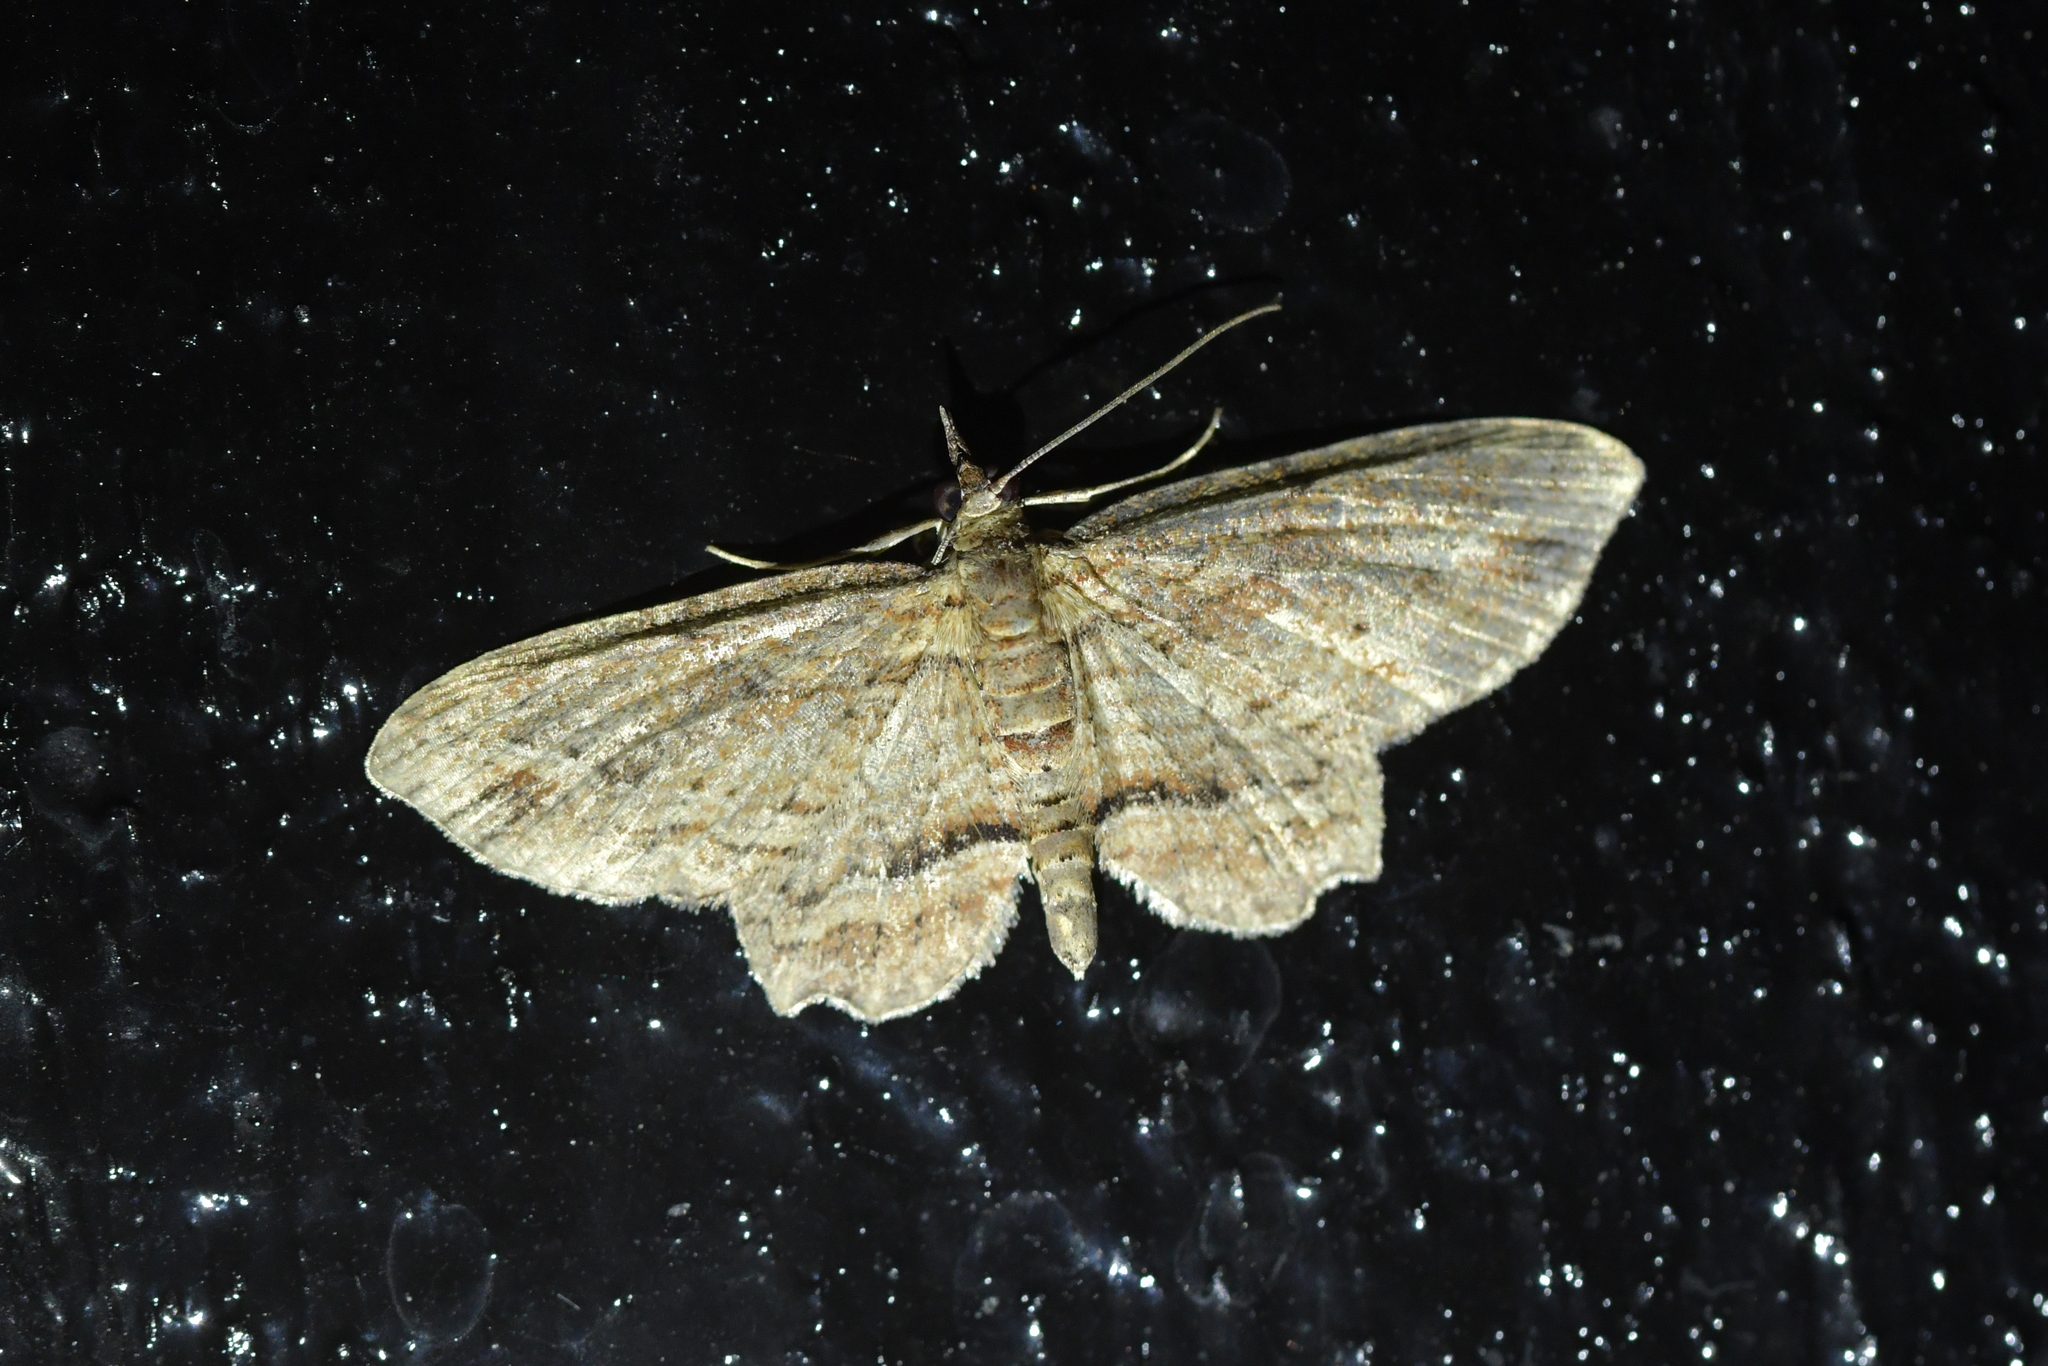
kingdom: Animalia
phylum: Arthropoda
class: Insecta
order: Lepidoptera
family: Geometridae
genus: Chloroclystis
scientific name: Chloroclystis filata
